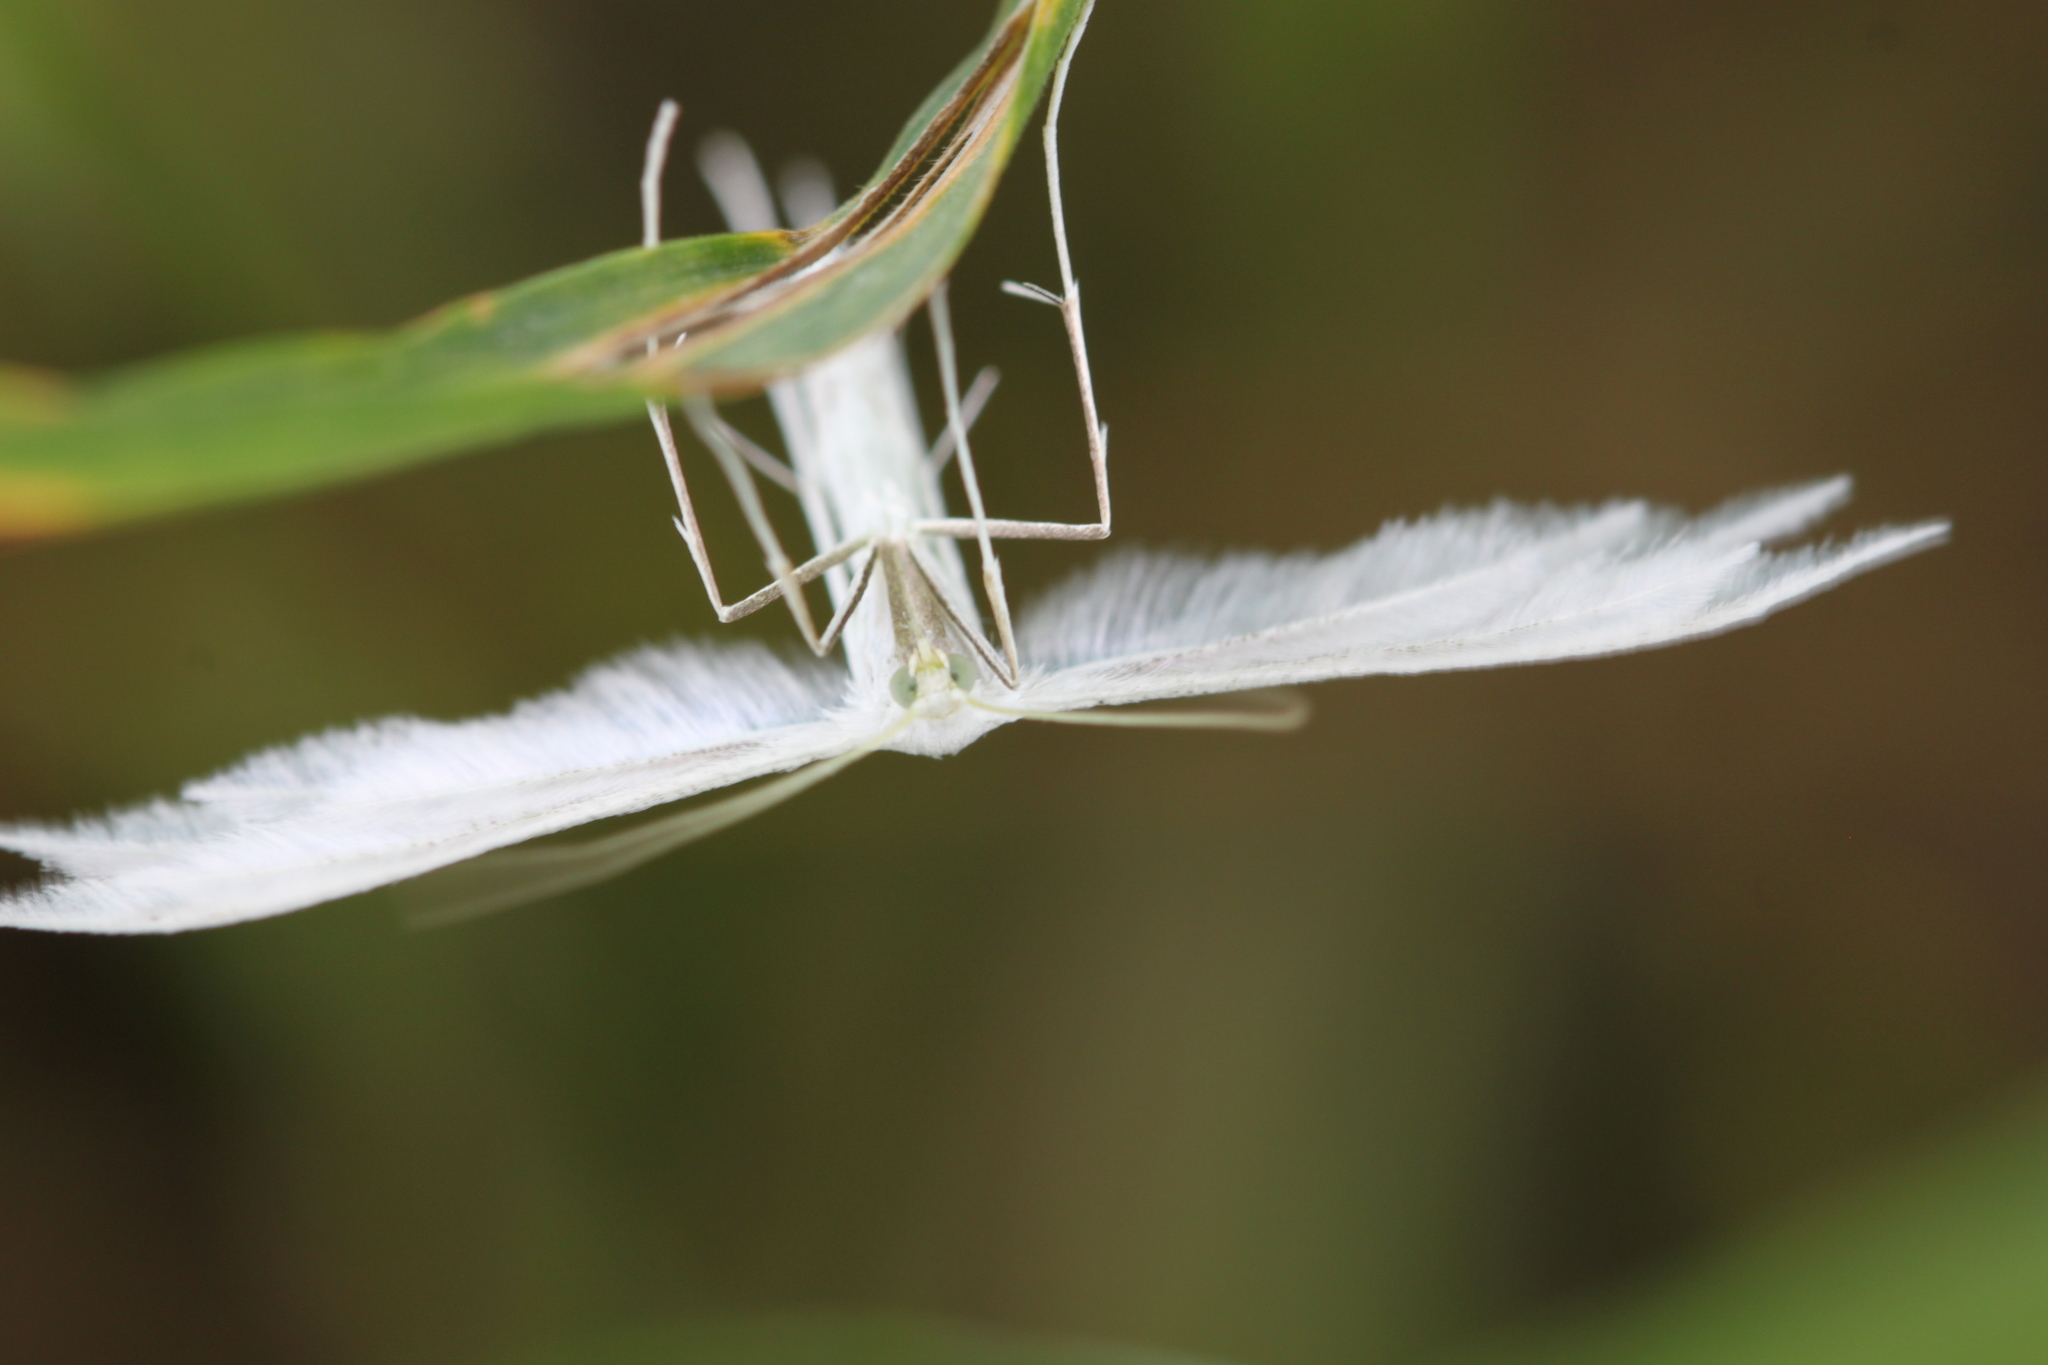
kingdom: Animalia
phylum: Arthropoda
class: Insecta
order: Lepidoptera
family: Pterophoridae
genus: Pterophorus
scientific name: Pterophorus pentadactyla
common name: White plume moth
